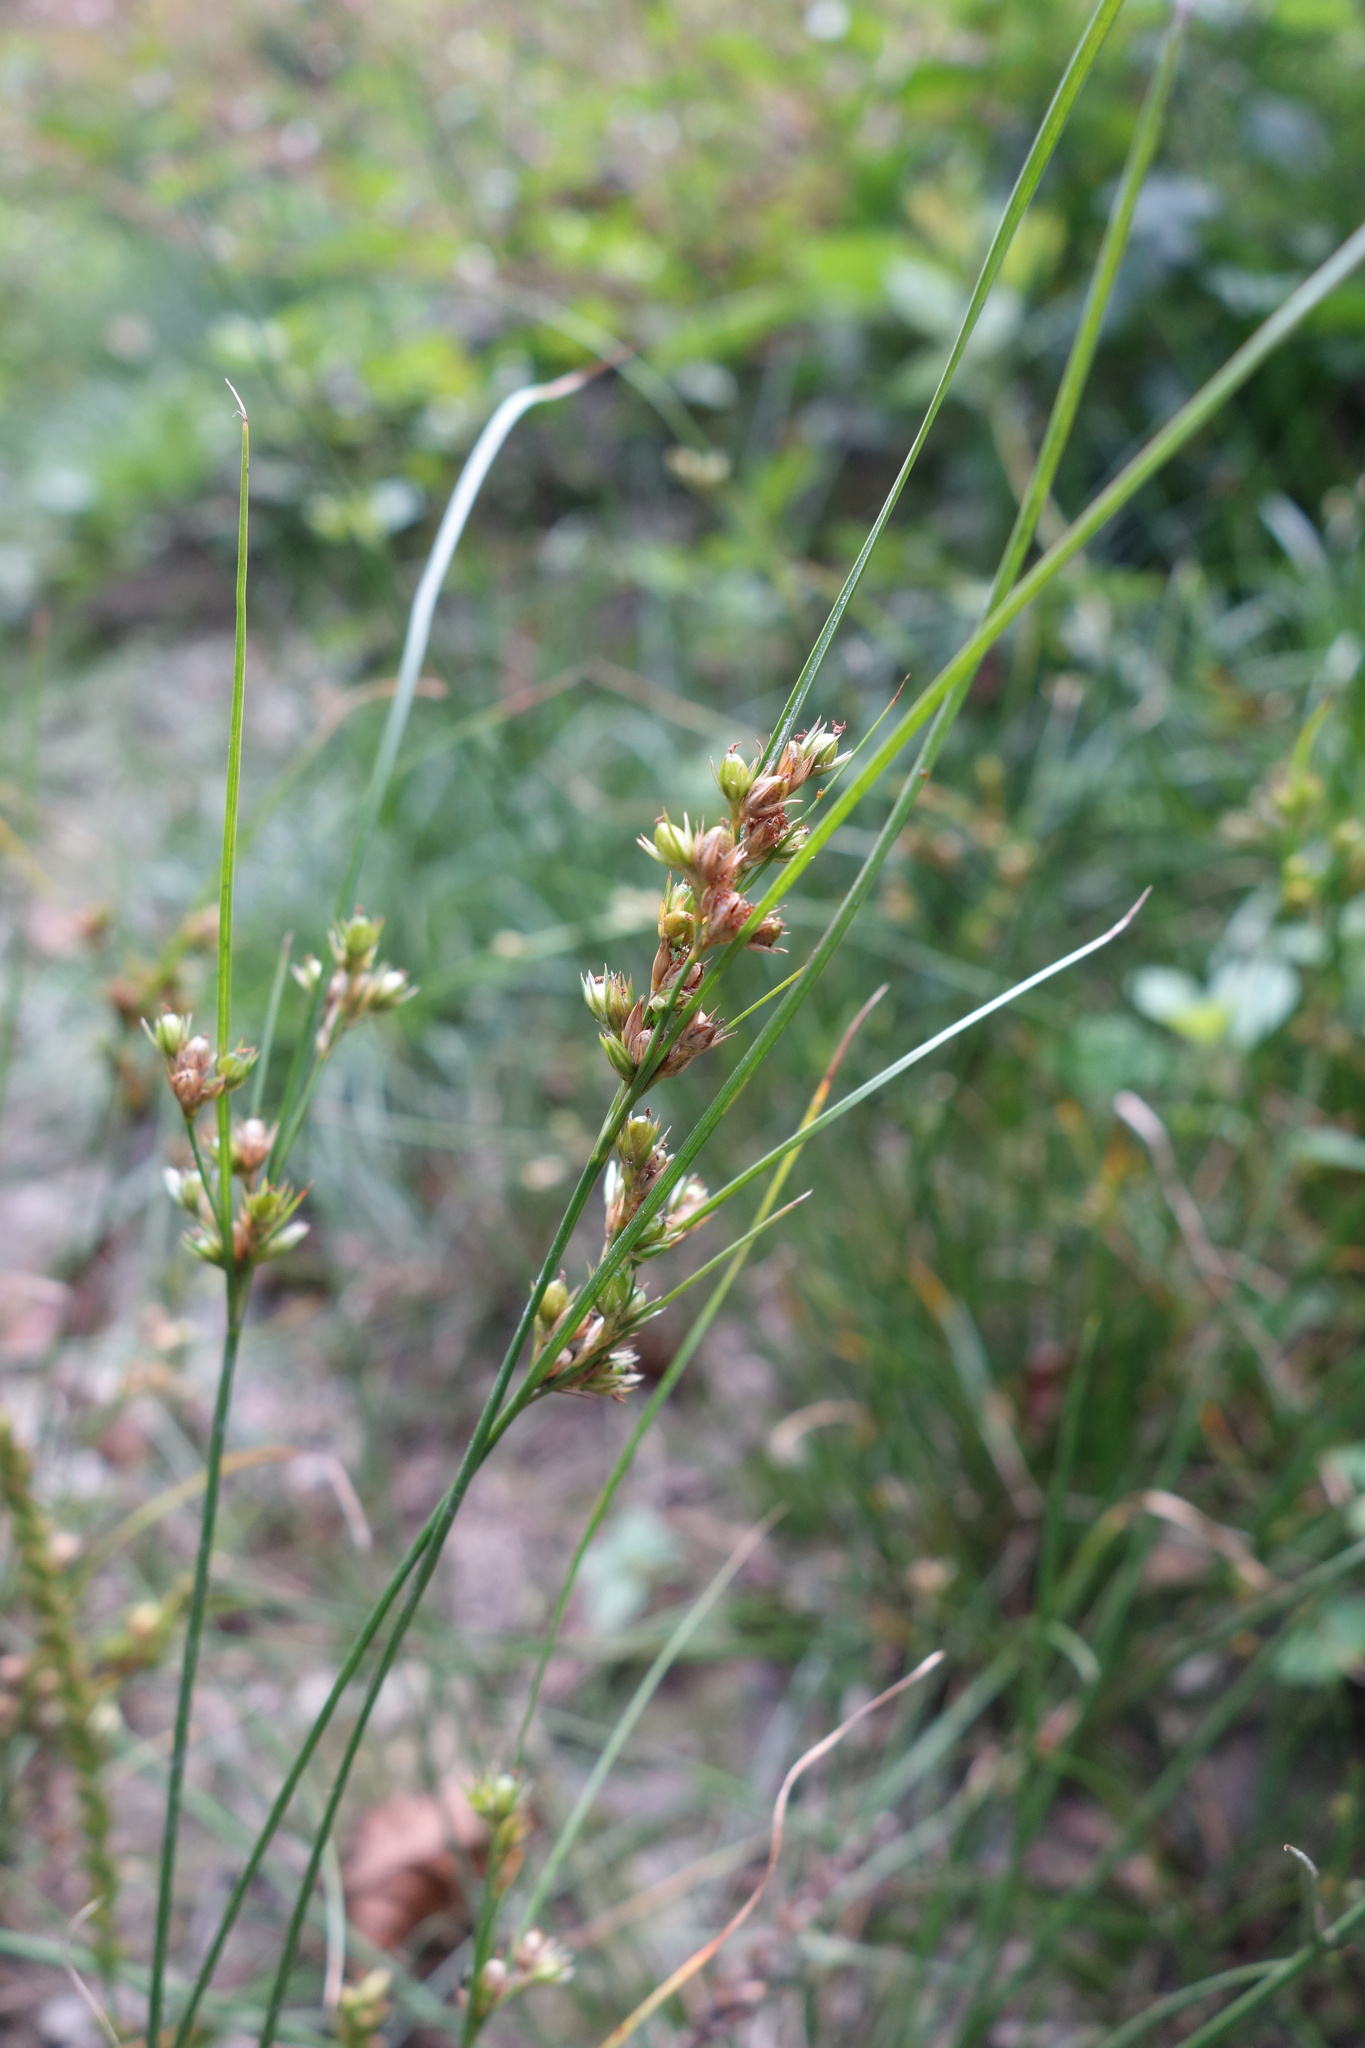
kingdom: Plantae
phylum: Tracheophyta
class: Liliopsida
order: Poales
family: Juncaceae
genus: Juncus
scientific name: Juncus tenuis
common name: Slender rush
